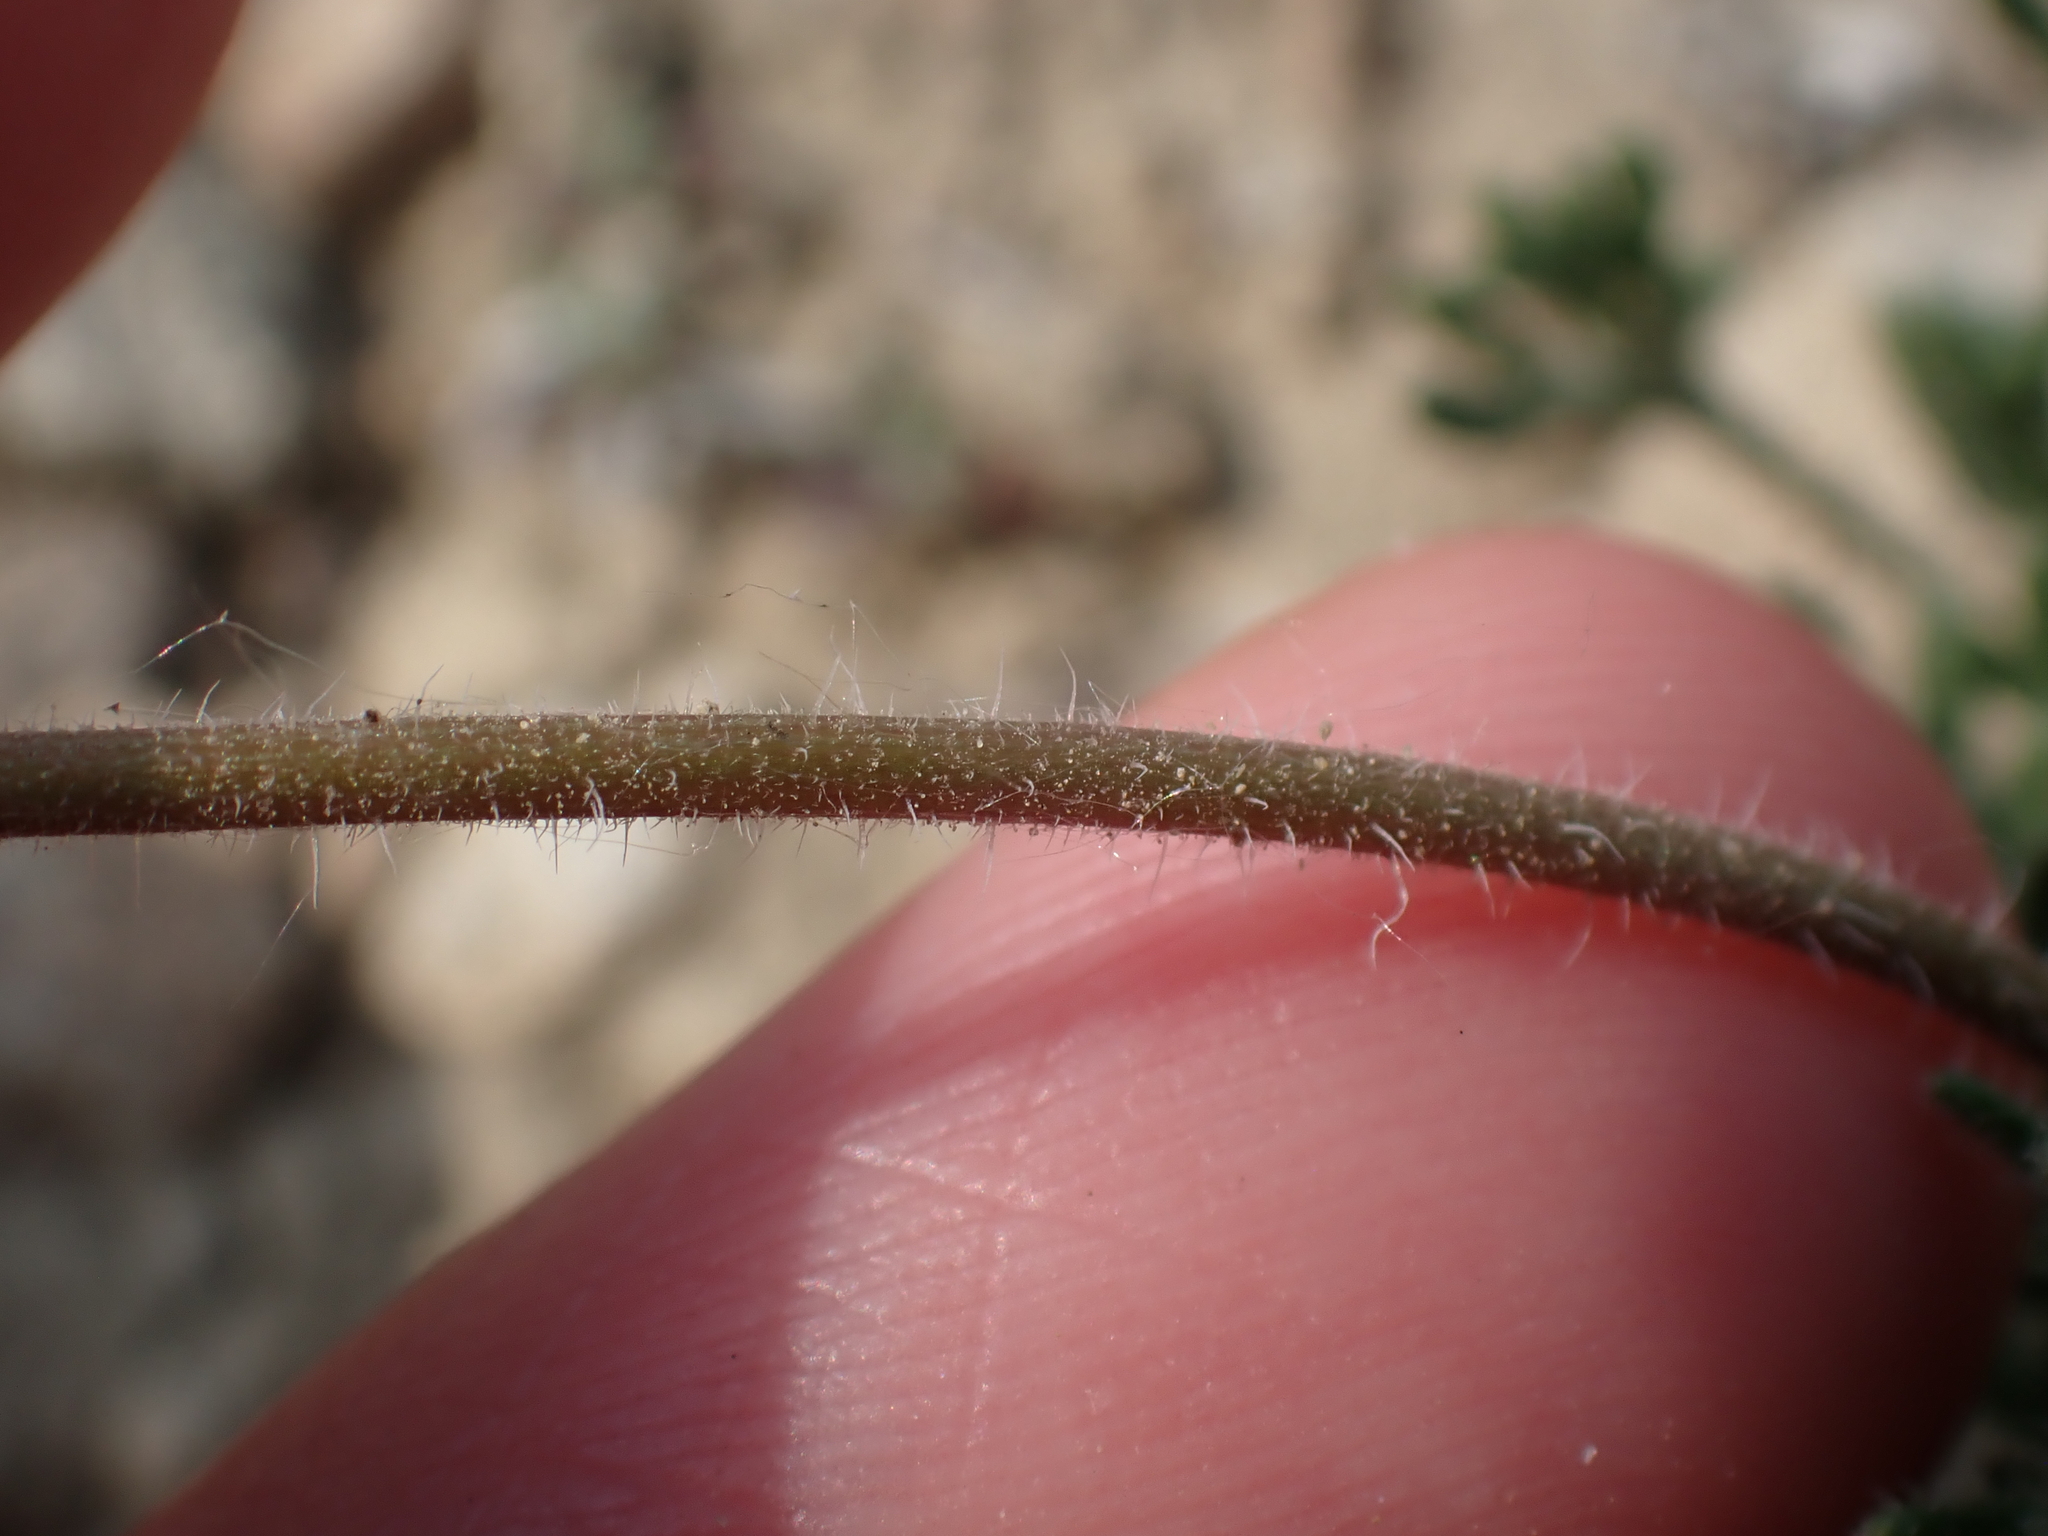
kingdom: Plantae
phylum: Tracheophyta
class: Magnoliopsida
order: Asterales
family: Asteraceae
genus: Erigeron
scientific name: Erigeron compositus
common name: Dwarf mountain fleabane
